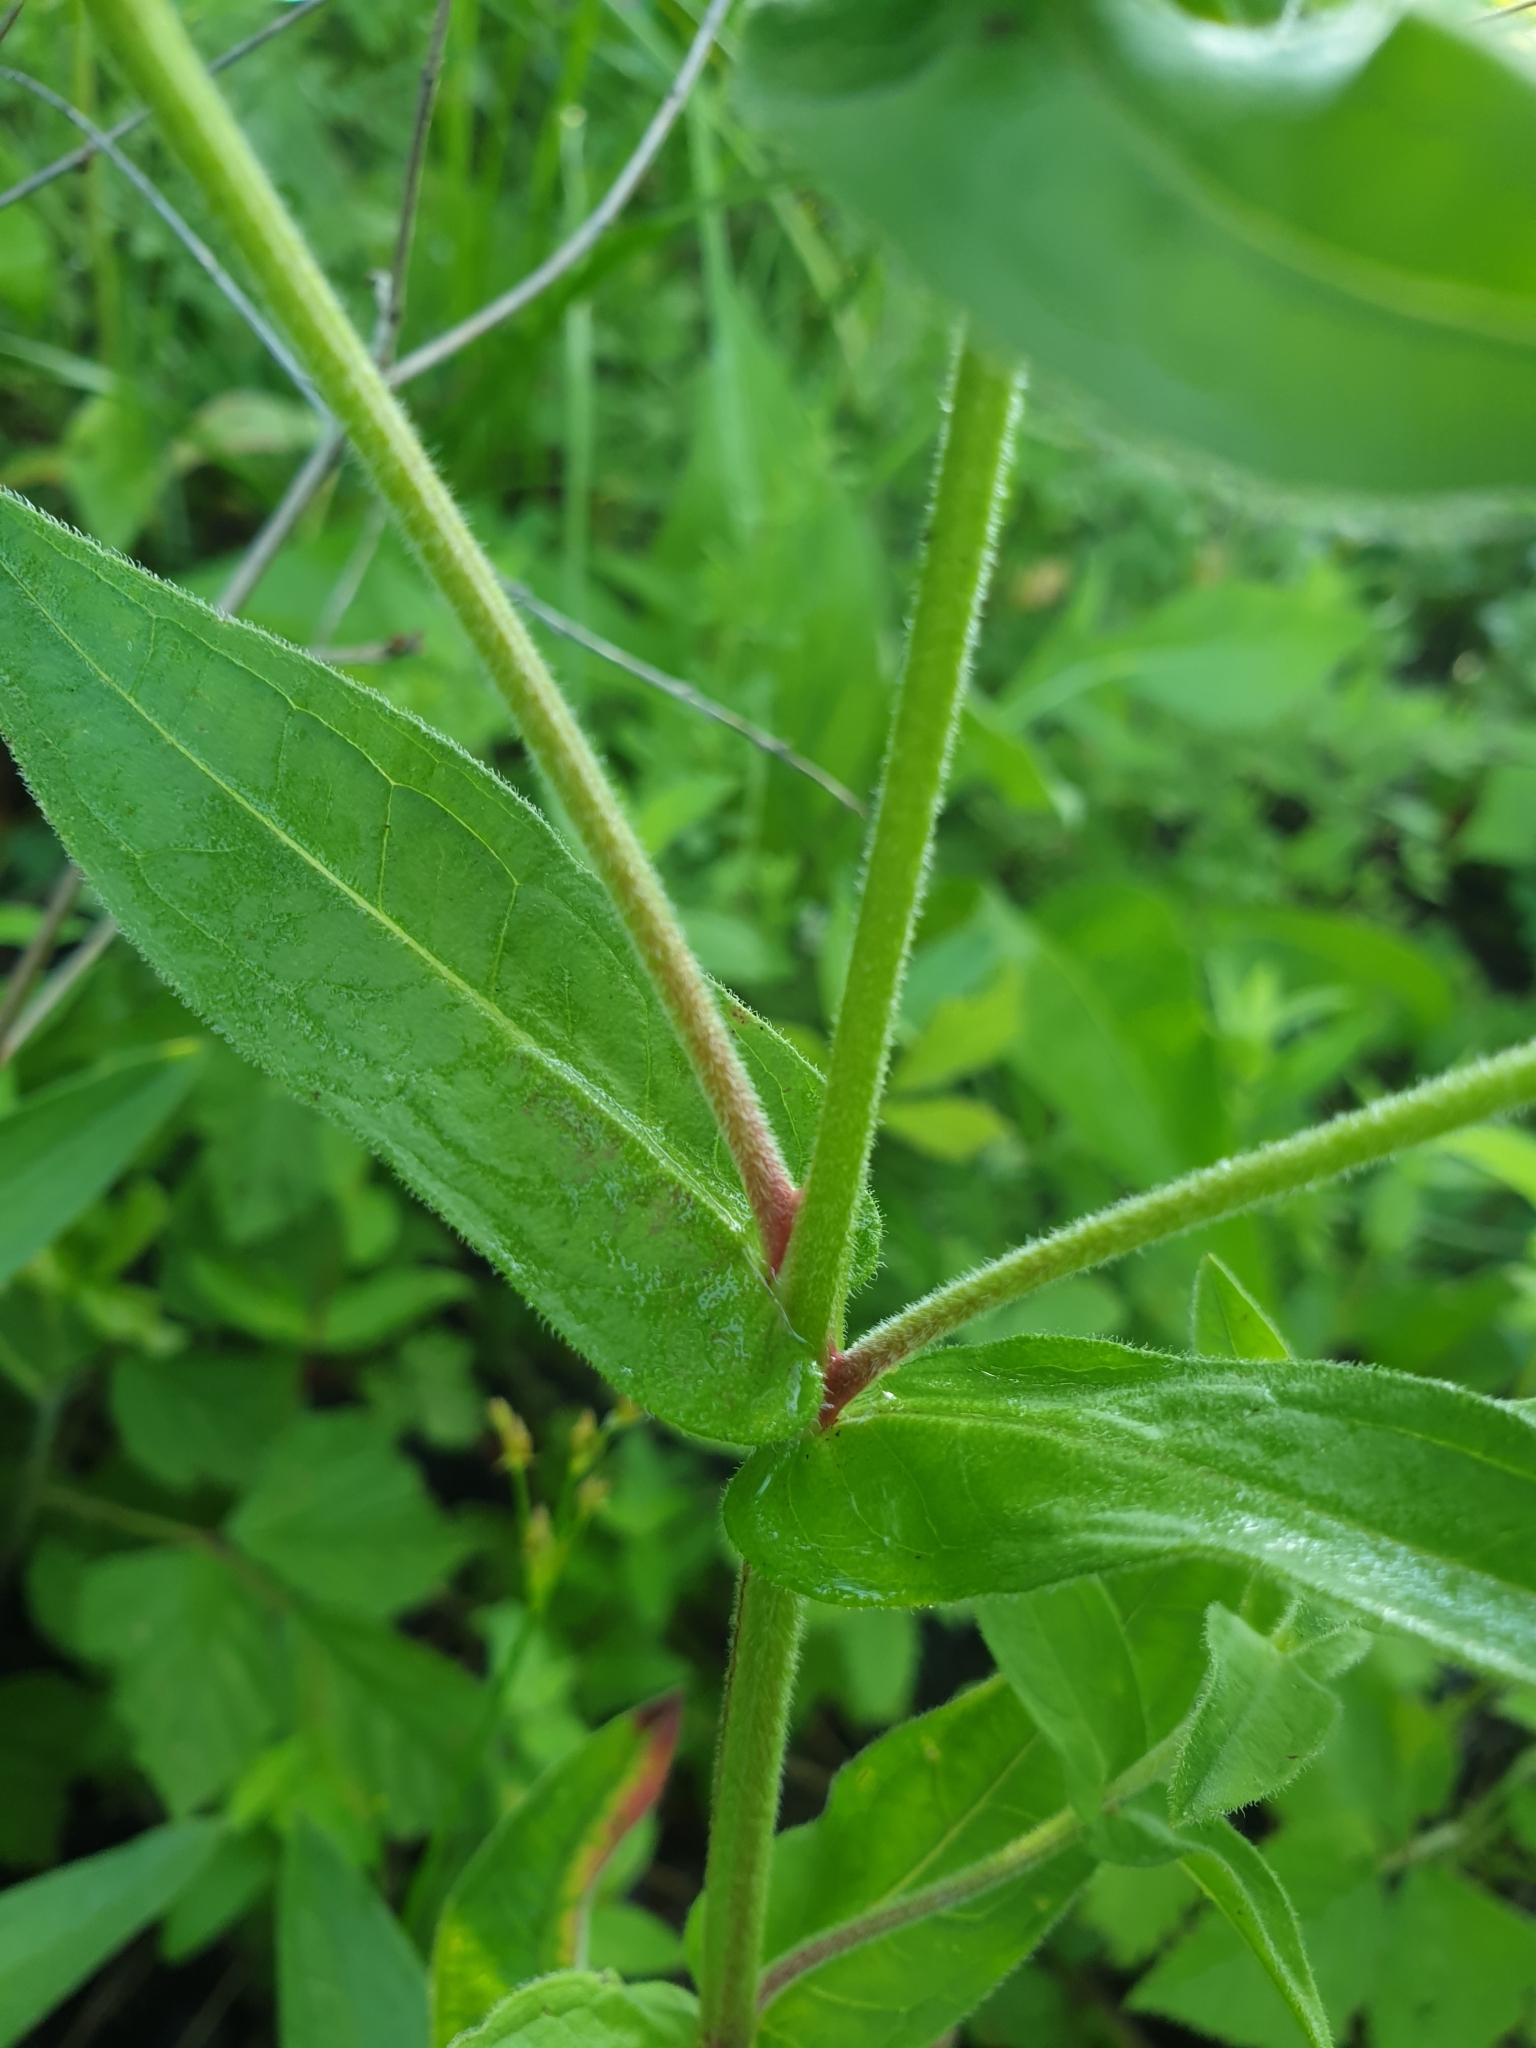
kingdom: Plantae
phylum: Tracheophyta
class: Magnoliopsida
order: Myrtales
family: Lythraceae
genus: Lythrum
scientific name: Lythrum salicaria
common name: Purple loosestrife
